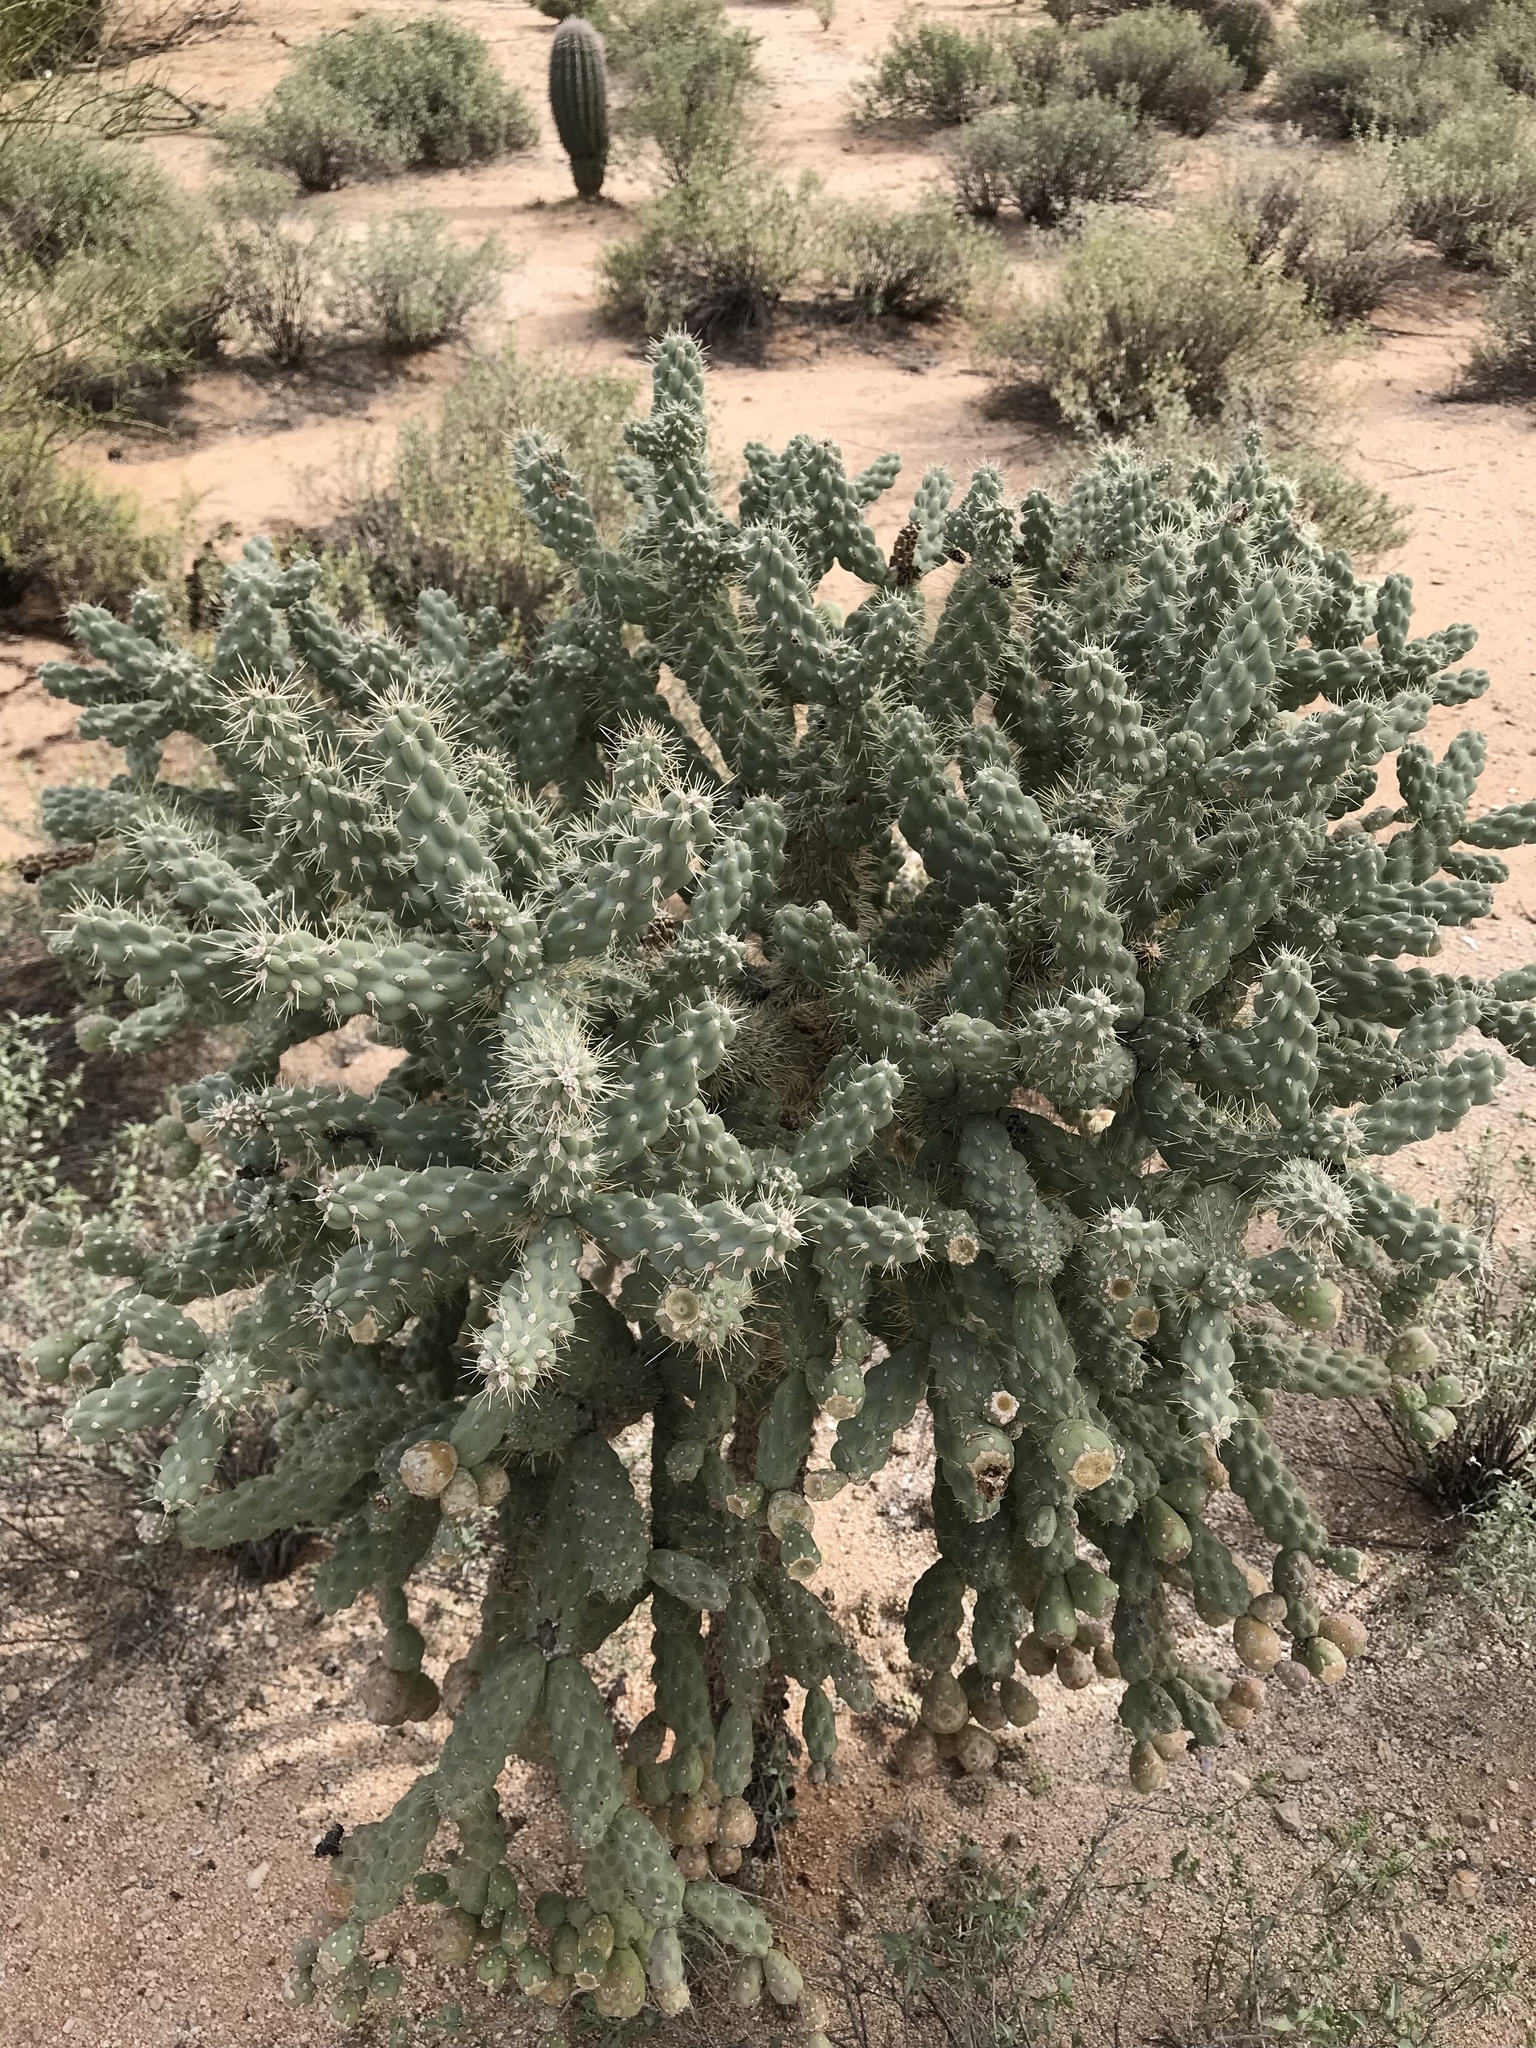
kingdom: Plantae
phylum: Tracheophyta
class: Magnoliopsida
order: Caryophyllales
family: Cactaceae
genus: Cylindropuntia
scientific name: Cylindropuntia fulgida
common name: Jumping cholla
